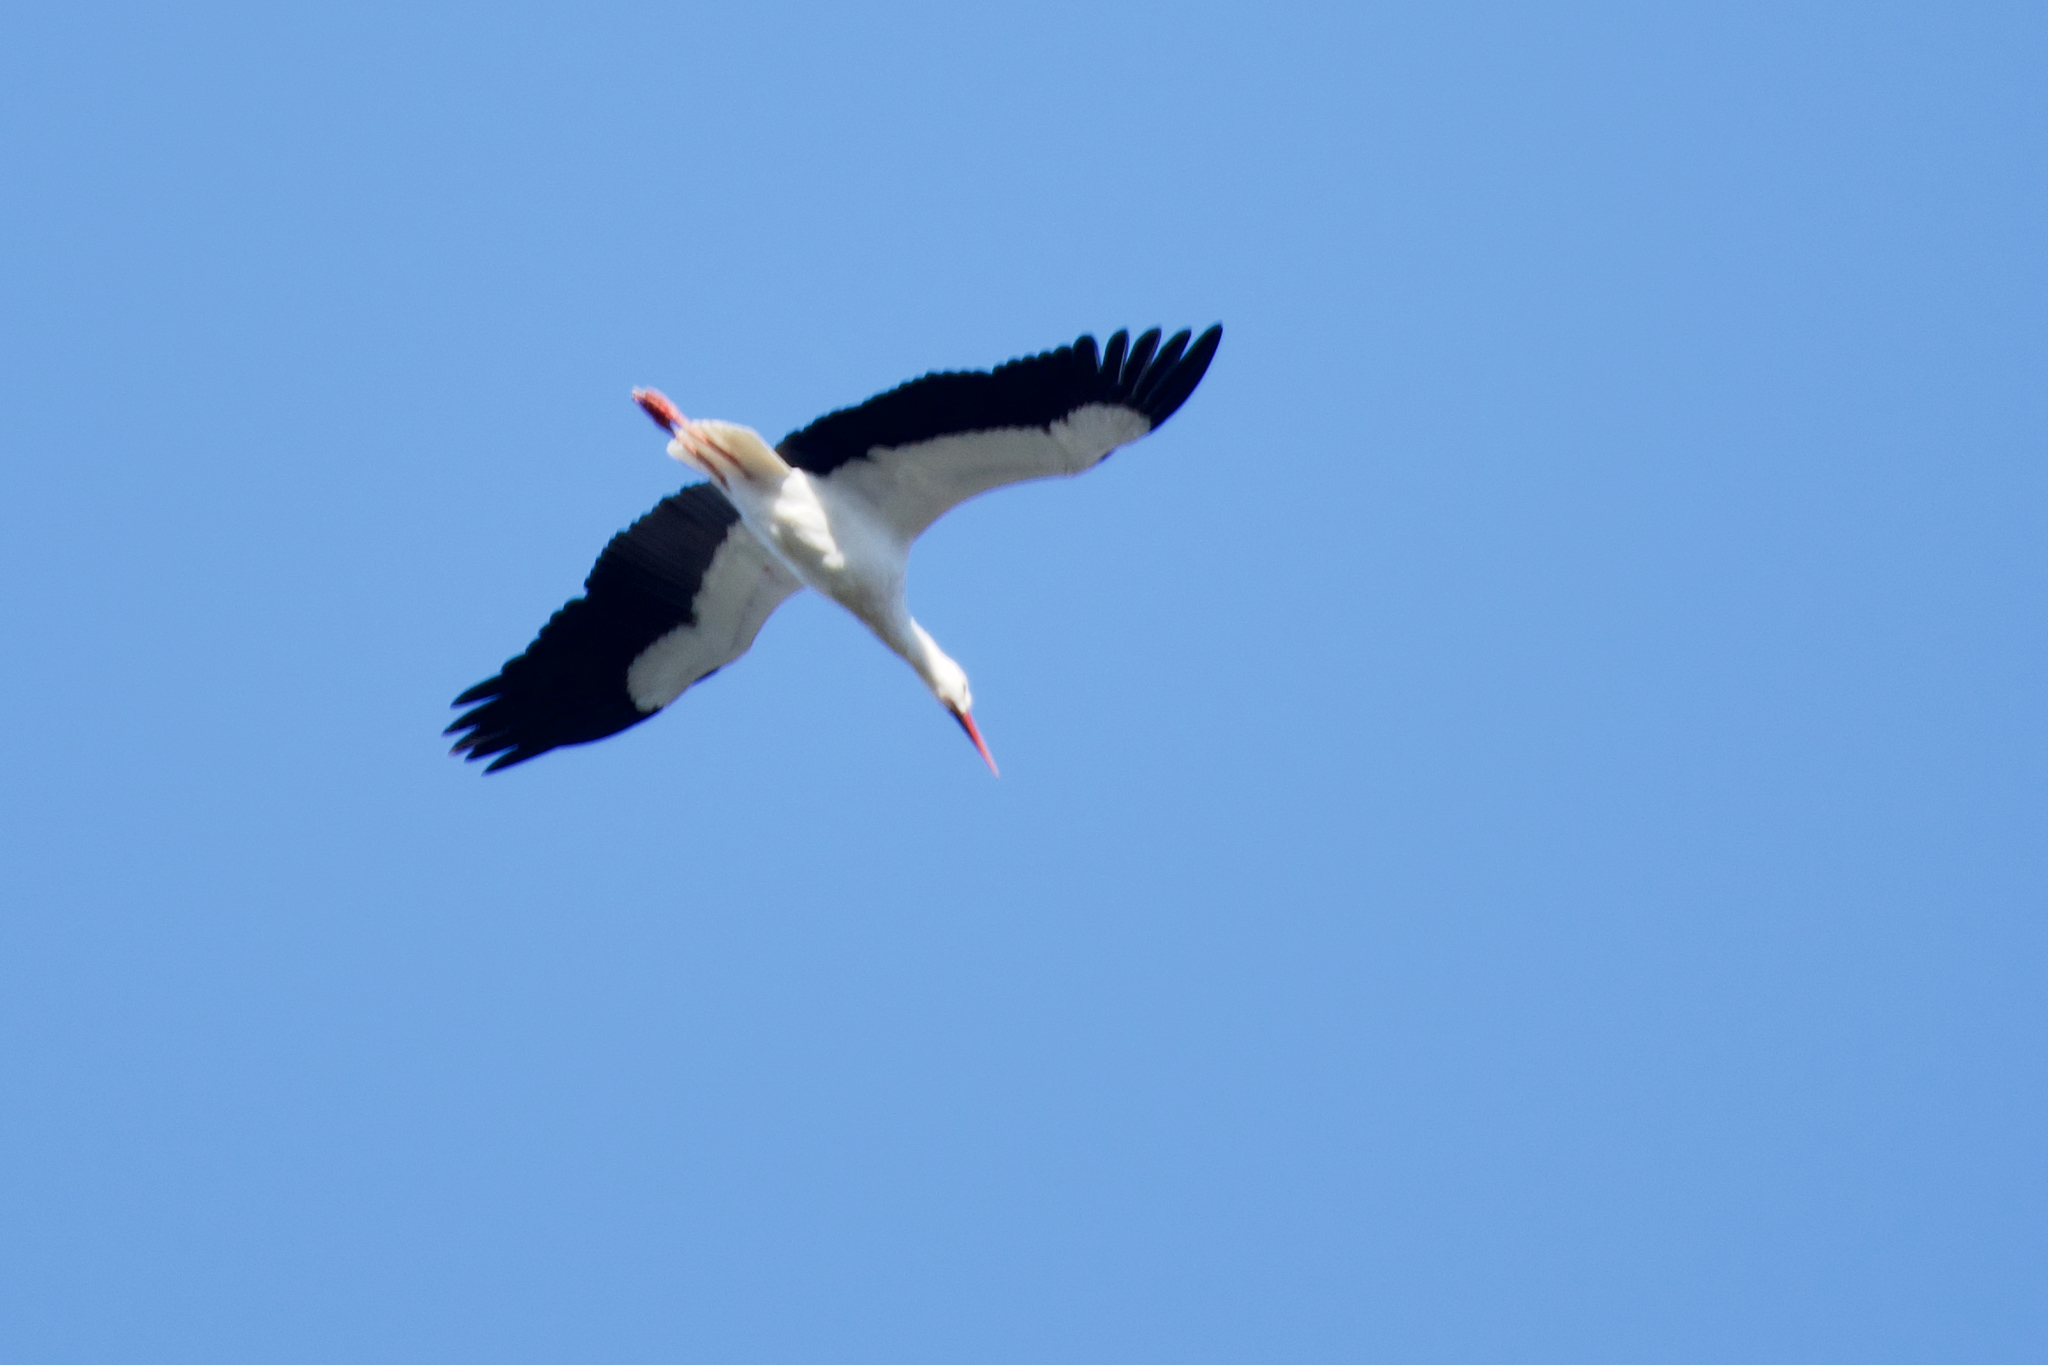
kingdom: Animalia
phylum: Chordata
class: Aves
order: Ciconiiformes
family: Ciconiidae
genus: Ciconia
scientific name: Ciconia ciconia
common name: White stork
